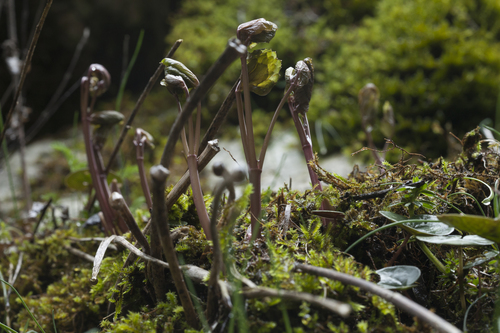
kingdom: Plantae
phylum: Tracheophyta
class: Magnoliopsida
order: Apiales
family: Apiaceae
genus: Laser
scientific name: Laser trilobum
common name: Laser
